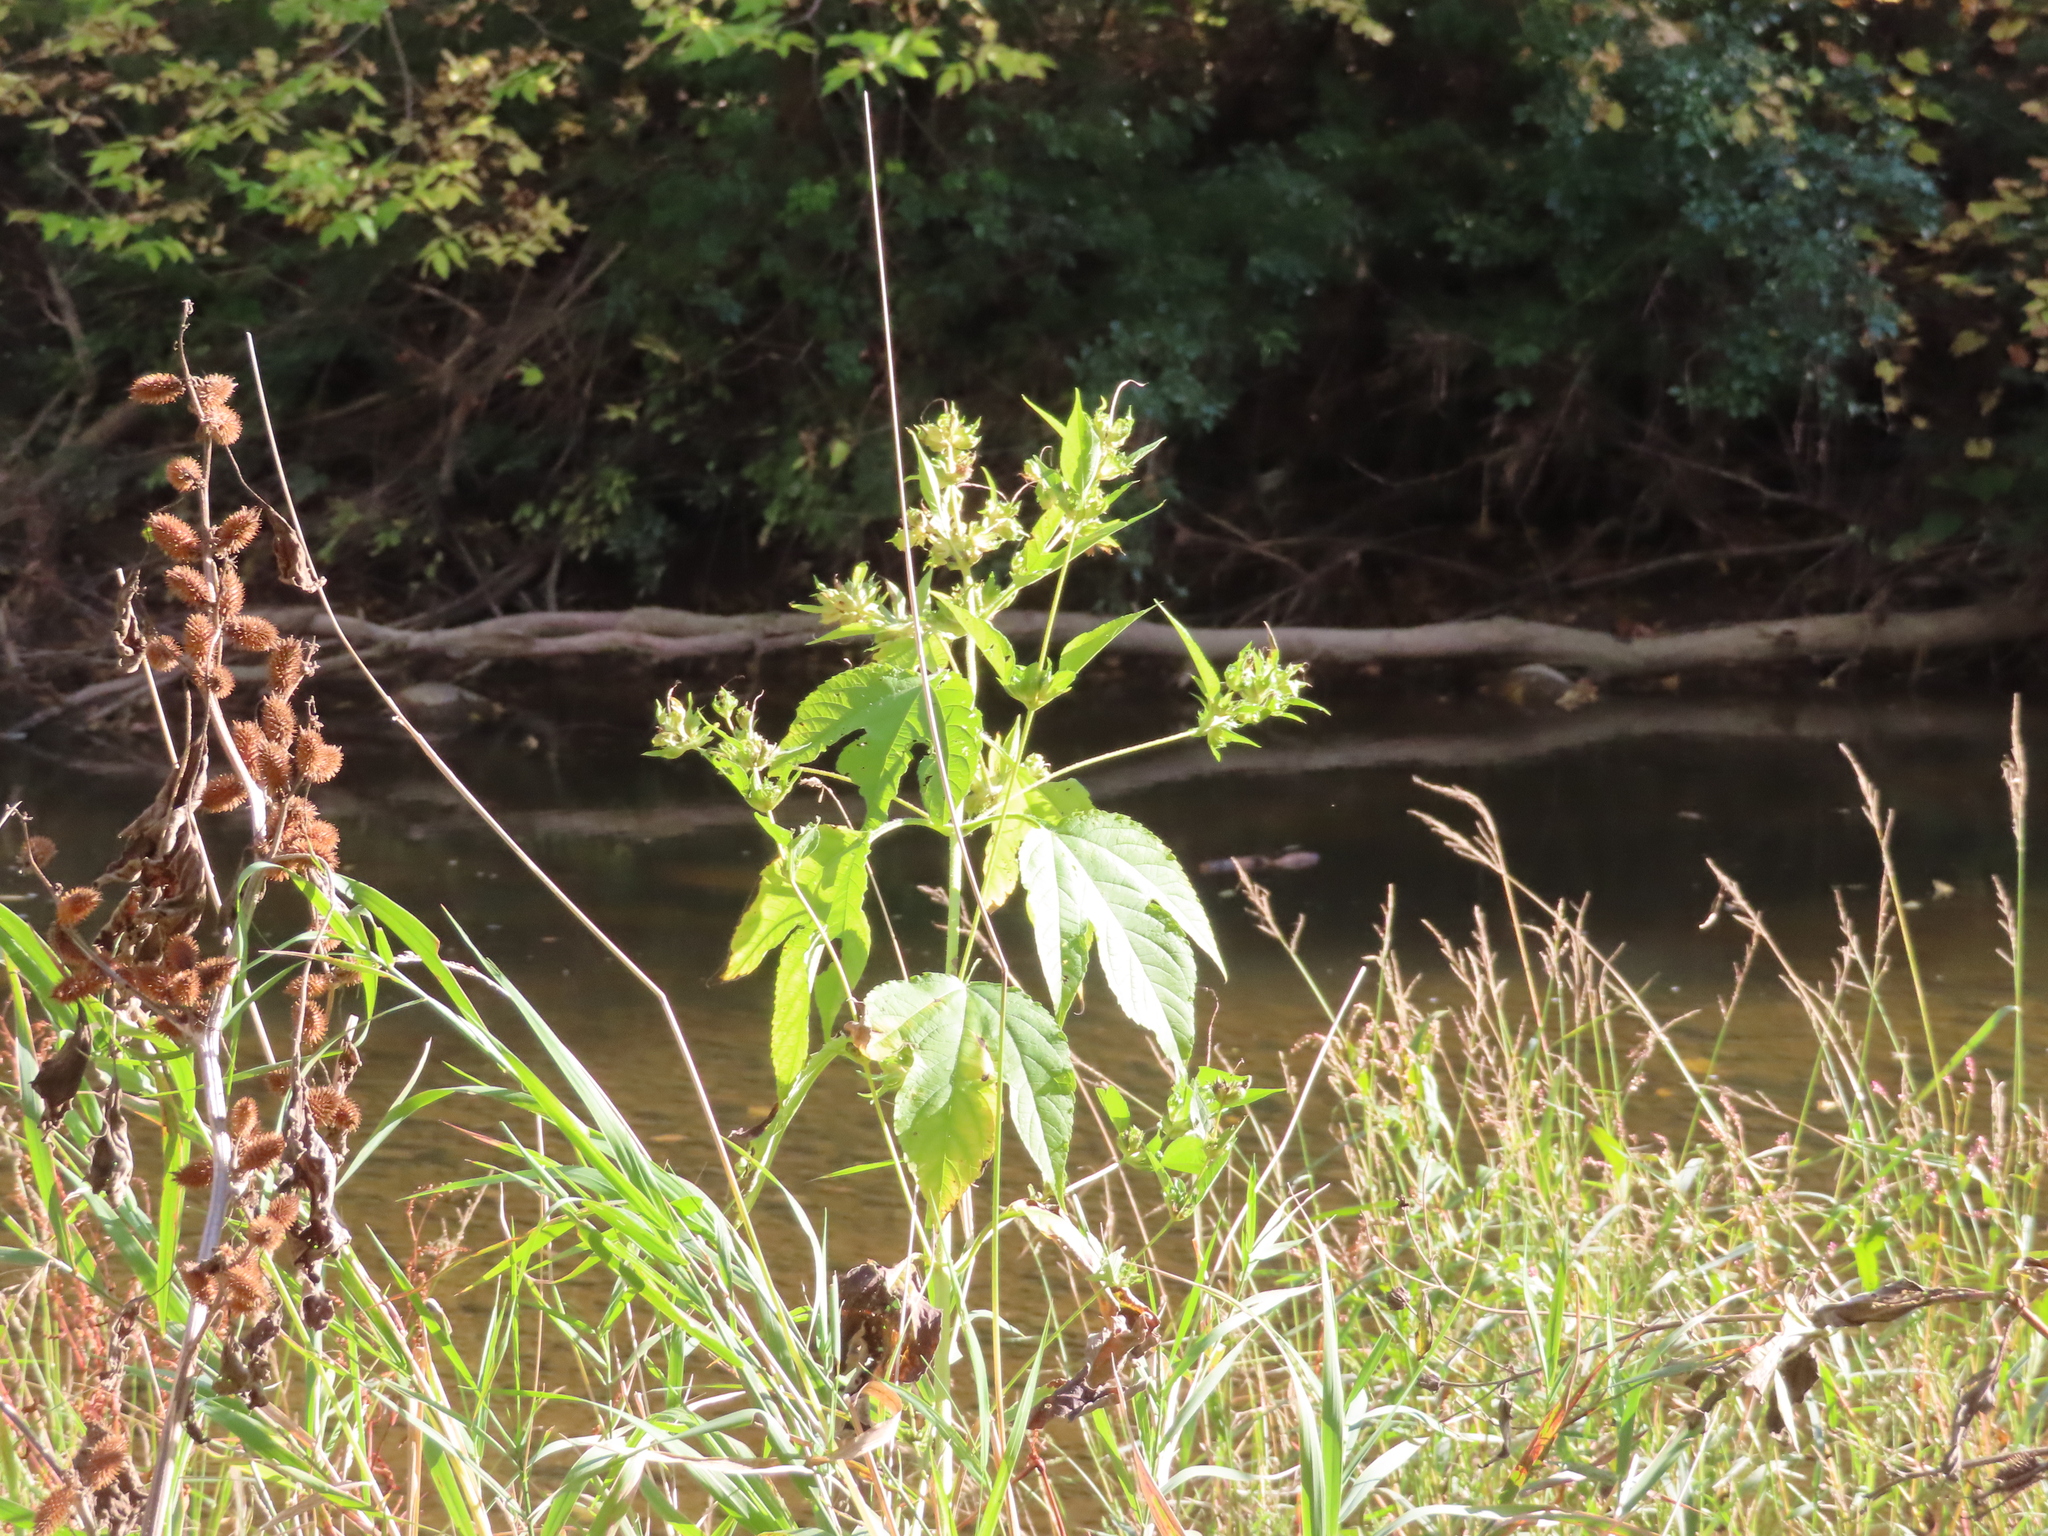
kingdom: Plantae
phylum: Tracheophyta
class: Magnoliopsida
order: Asterales
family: Asteraceae
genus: Ambrosia
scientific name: Ambrosia trifida
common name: Giant ragweed
